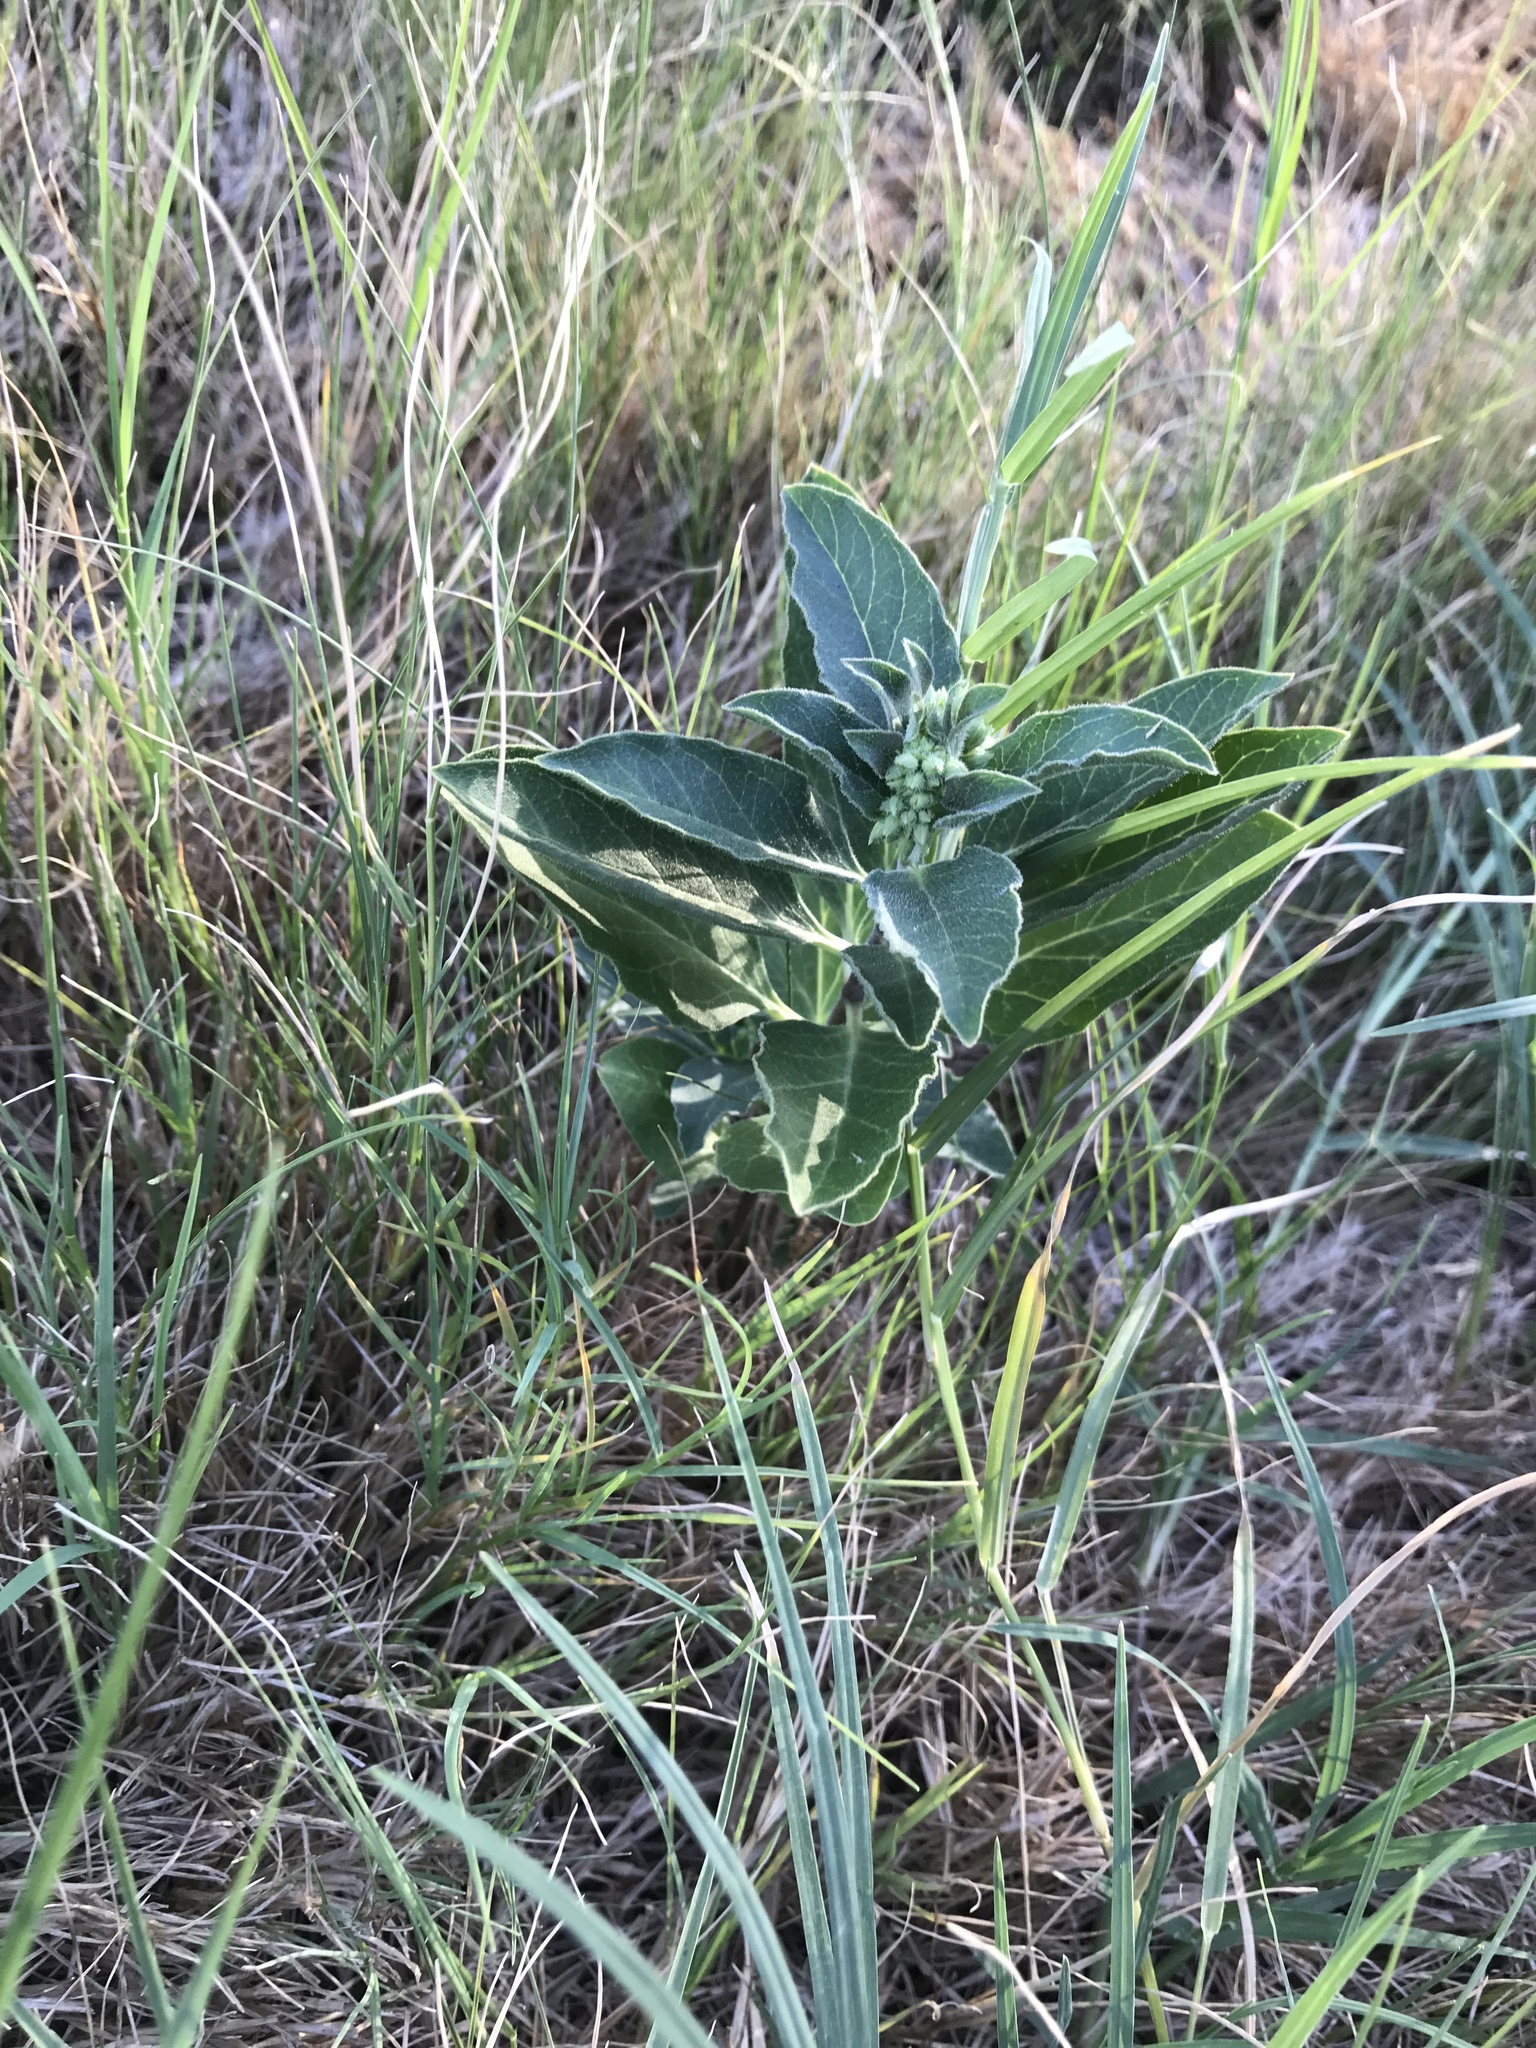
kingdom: Plantae
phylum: Tracheophyta
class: Magnoliopsida
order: Gentianales
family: Apocynaceae
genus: Asclepias
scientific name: Asclepias oenotheroides
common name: Zizotes milkweed
